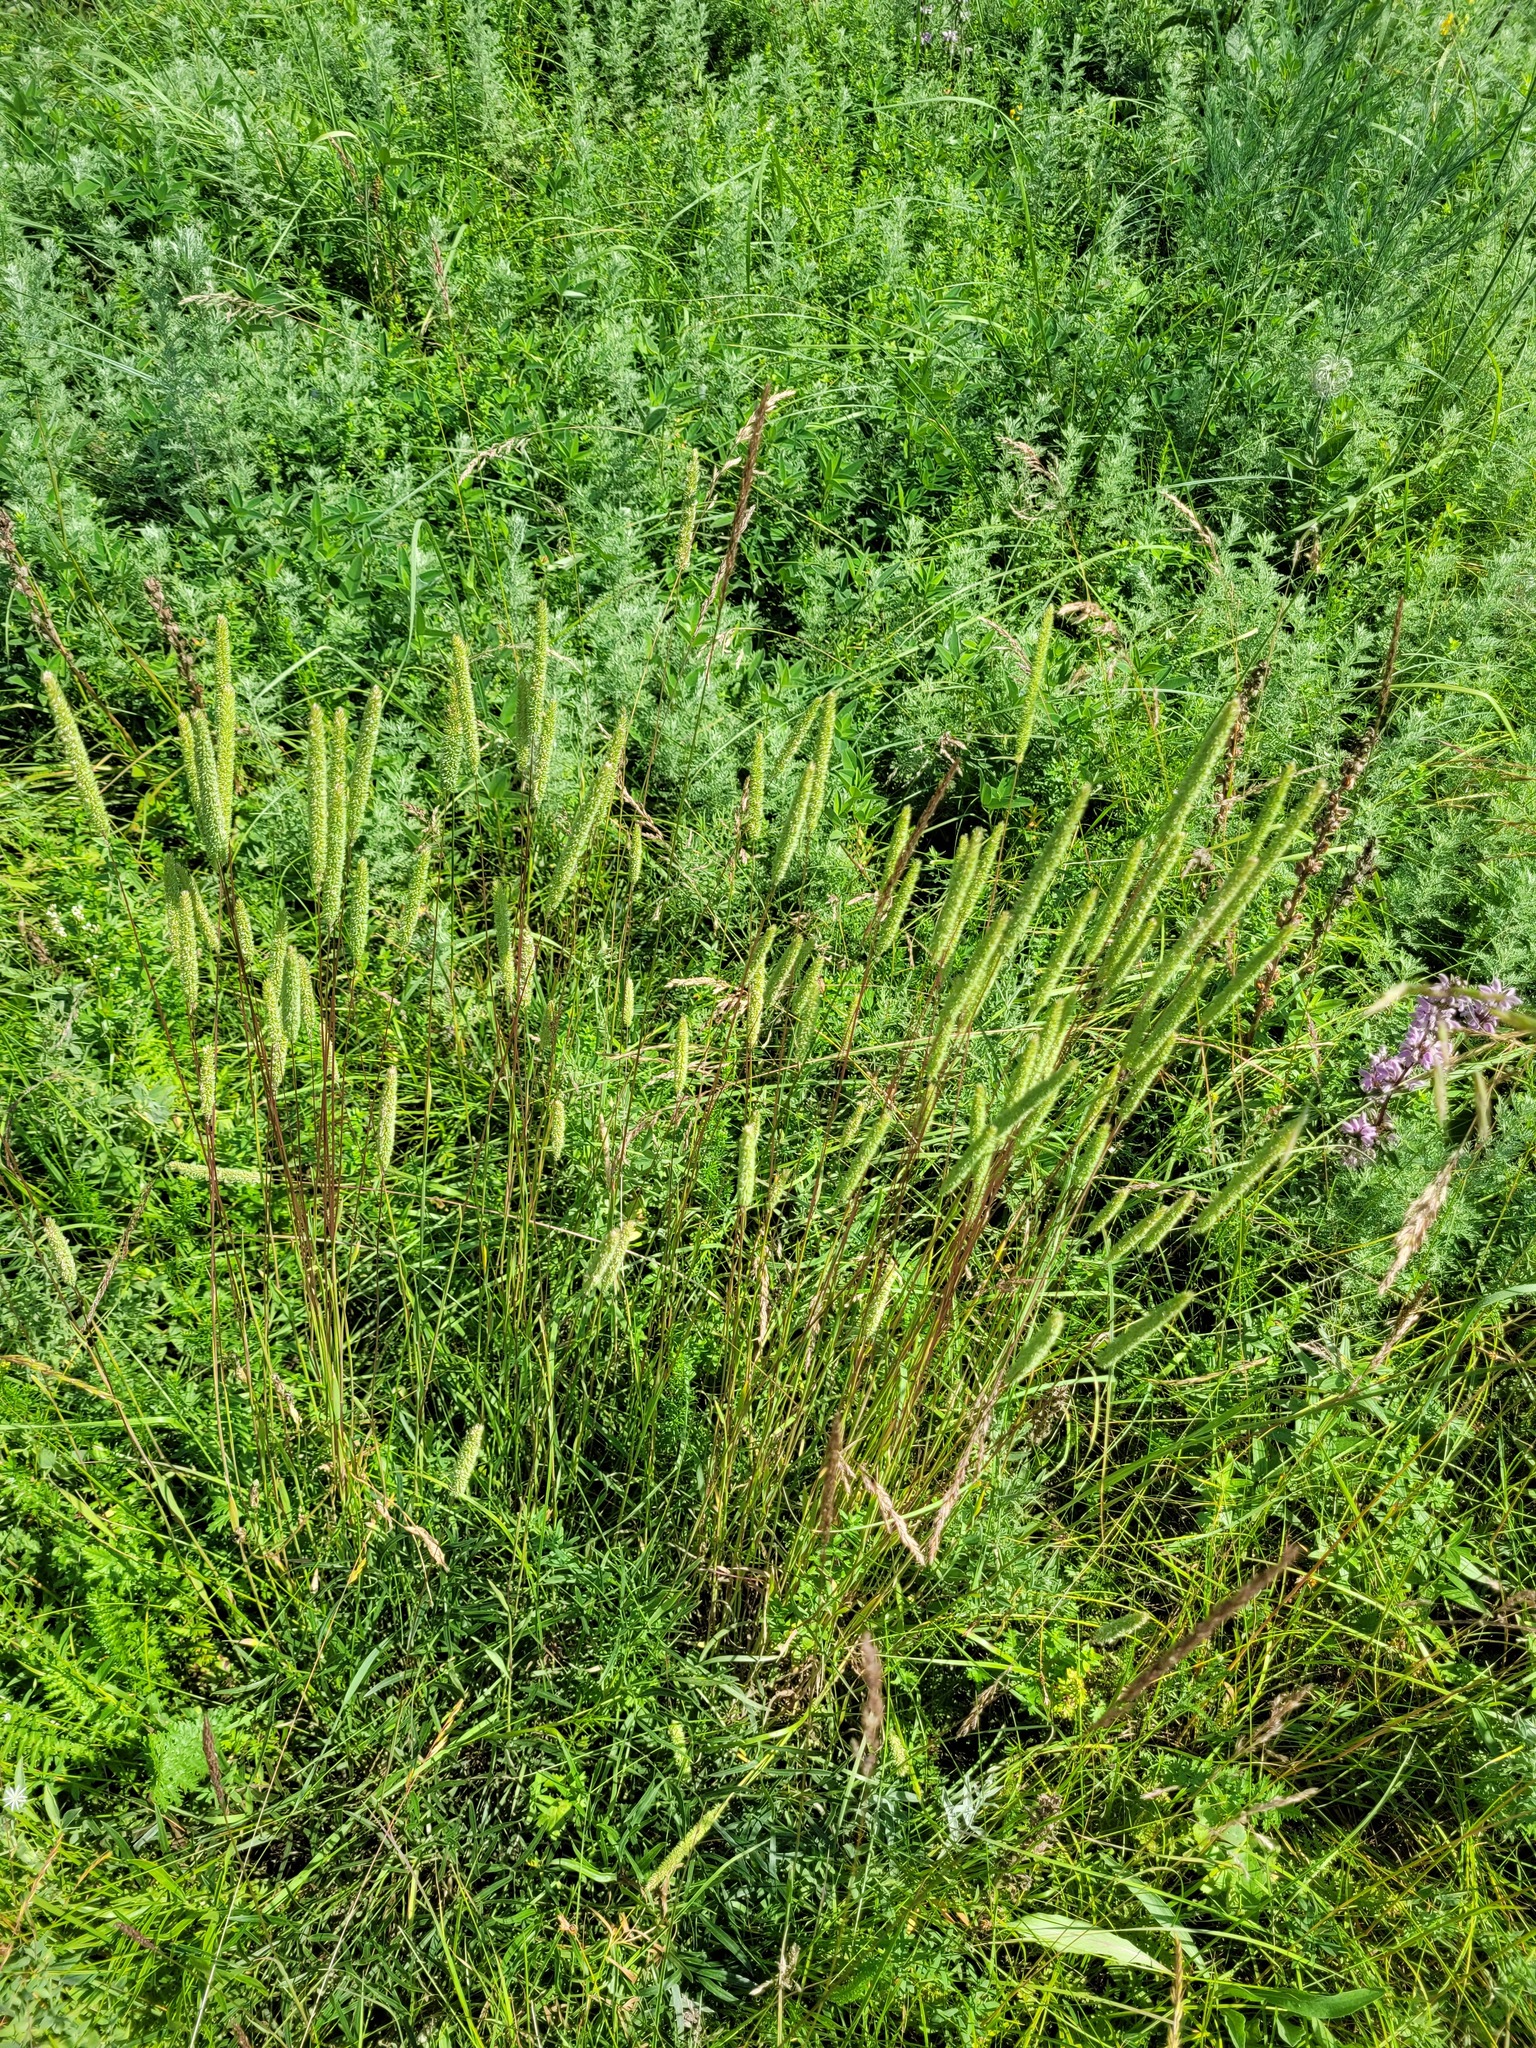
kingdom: Plantae
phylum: Tracheophyta
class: Liliopsida
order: Poales
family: Poaceae
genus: Phleum
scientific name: Phleum phleoides
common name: Purple-stem cat's-tail
